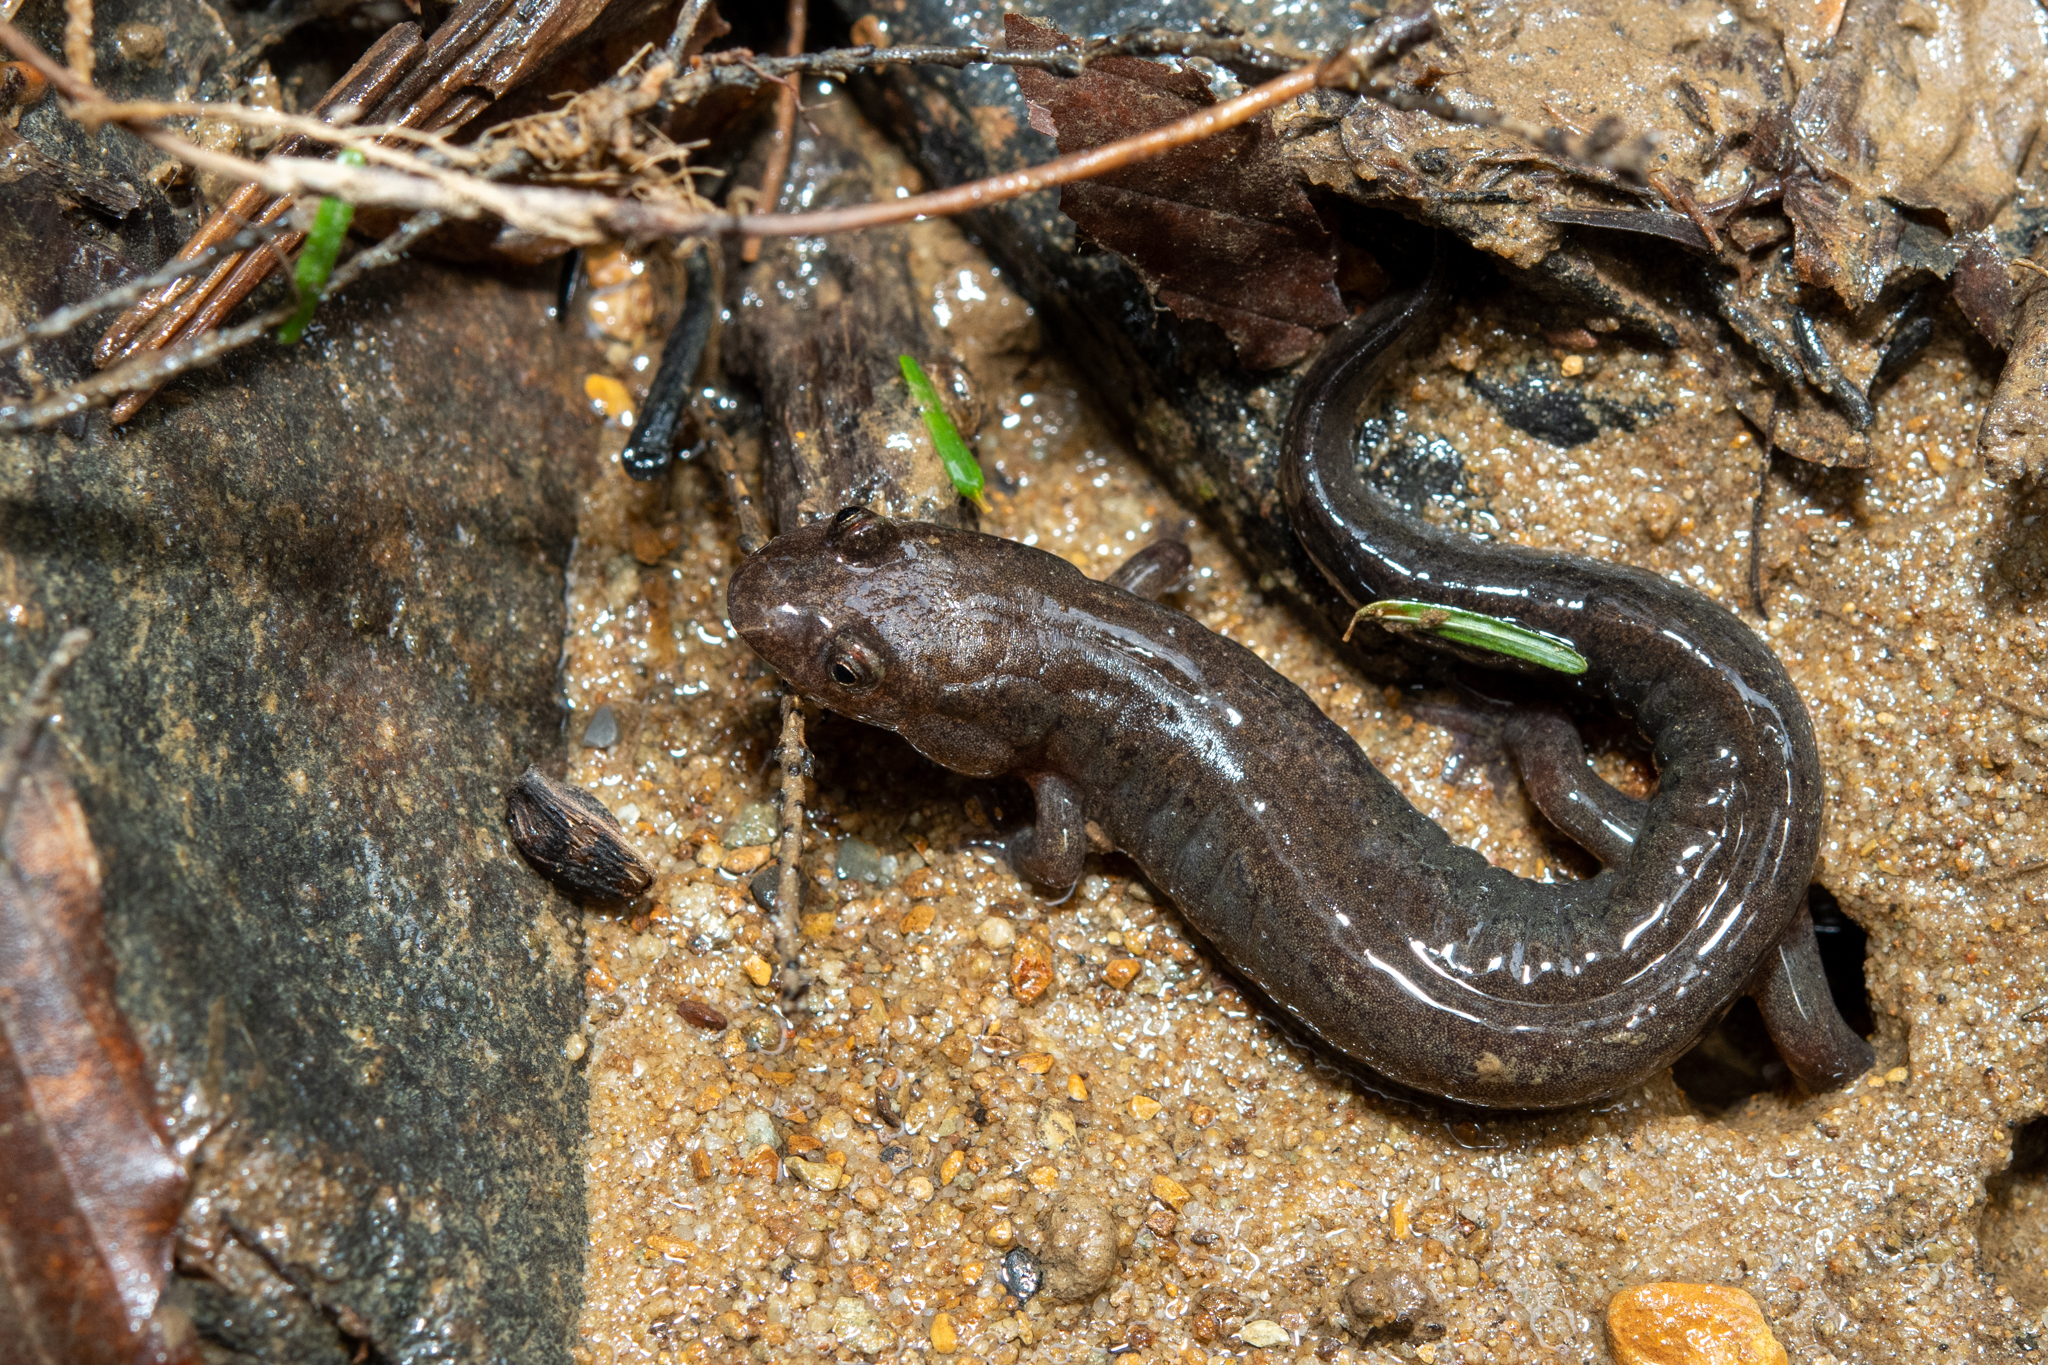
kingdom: Animalia
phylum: Chordata
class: Amphibia
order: Caudata
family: Plethodontidae
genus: Desmognathus
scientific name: Desmognathus fuscus
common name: Northern dusky salamander
